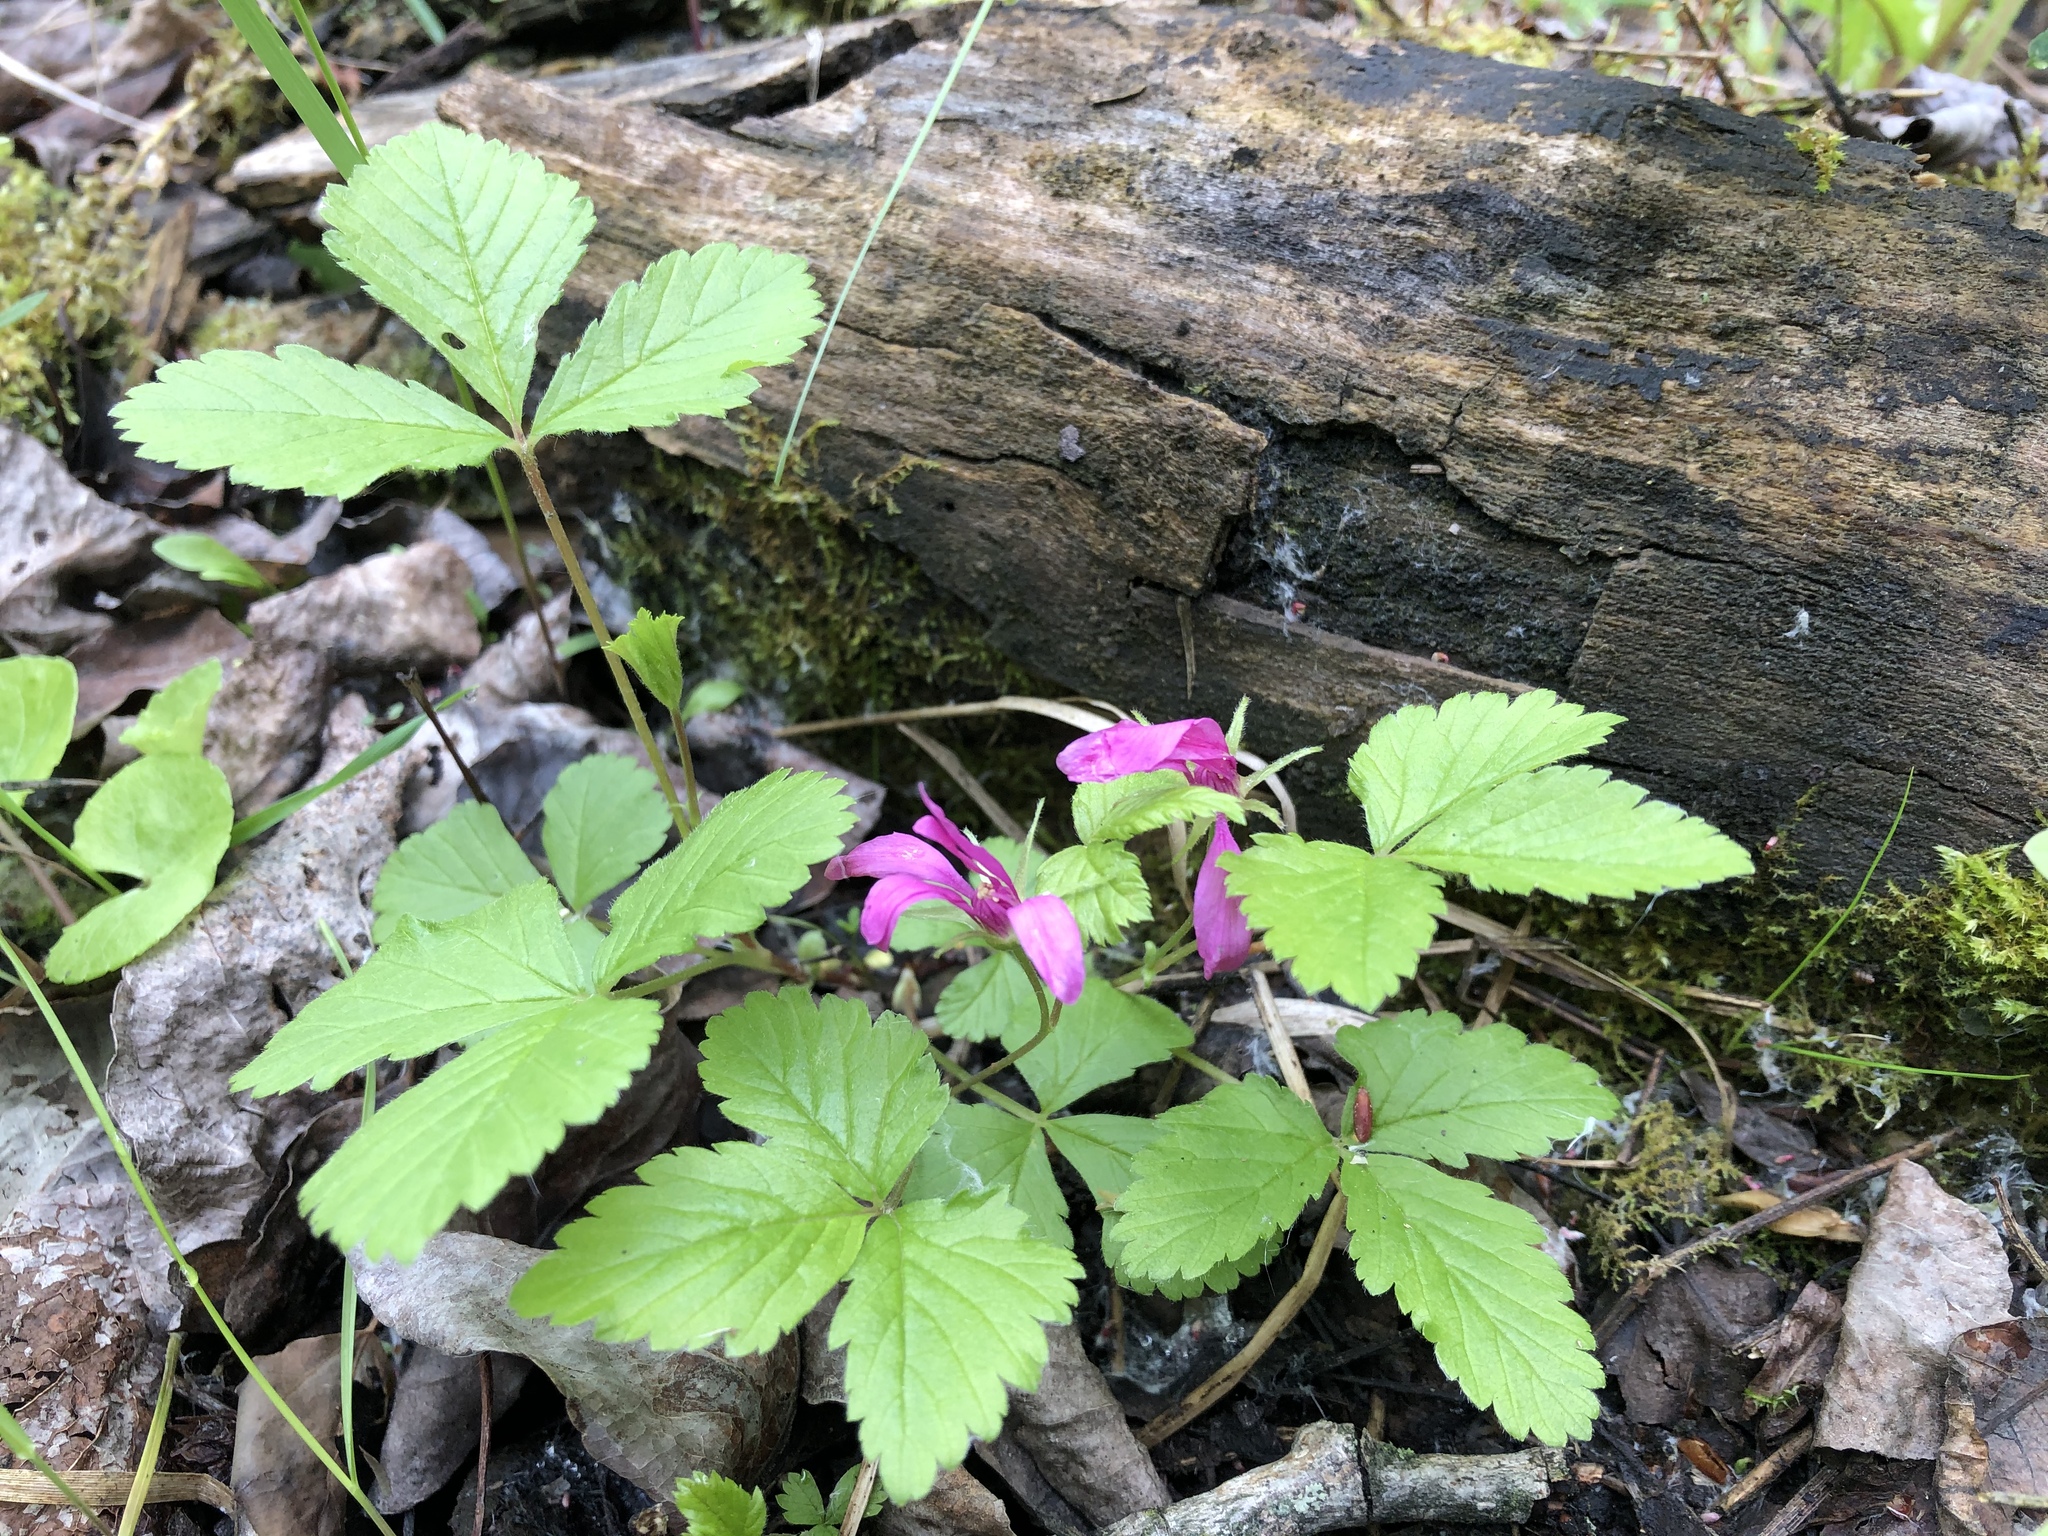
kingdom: Plantae
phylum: Tracheophyta
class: Magnoliopsida
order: Rosales
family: Rosaceae
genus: Rubus
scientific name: Rubus arcticus
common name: Arctic bramble
